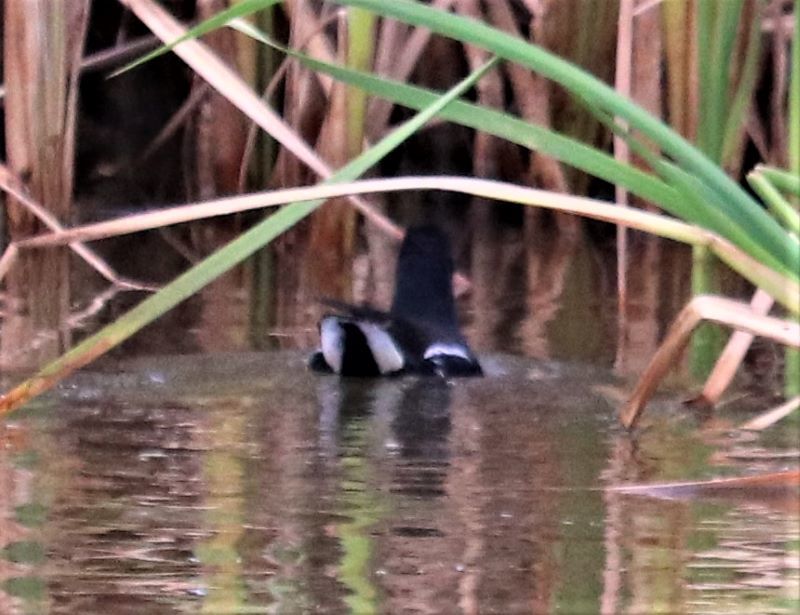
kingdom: Animalia
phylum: Chordata
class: Aves
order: Gruiformes
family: Rallidae
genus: Gallinula
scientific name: Gallinula chloropus
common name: Common moorhen
